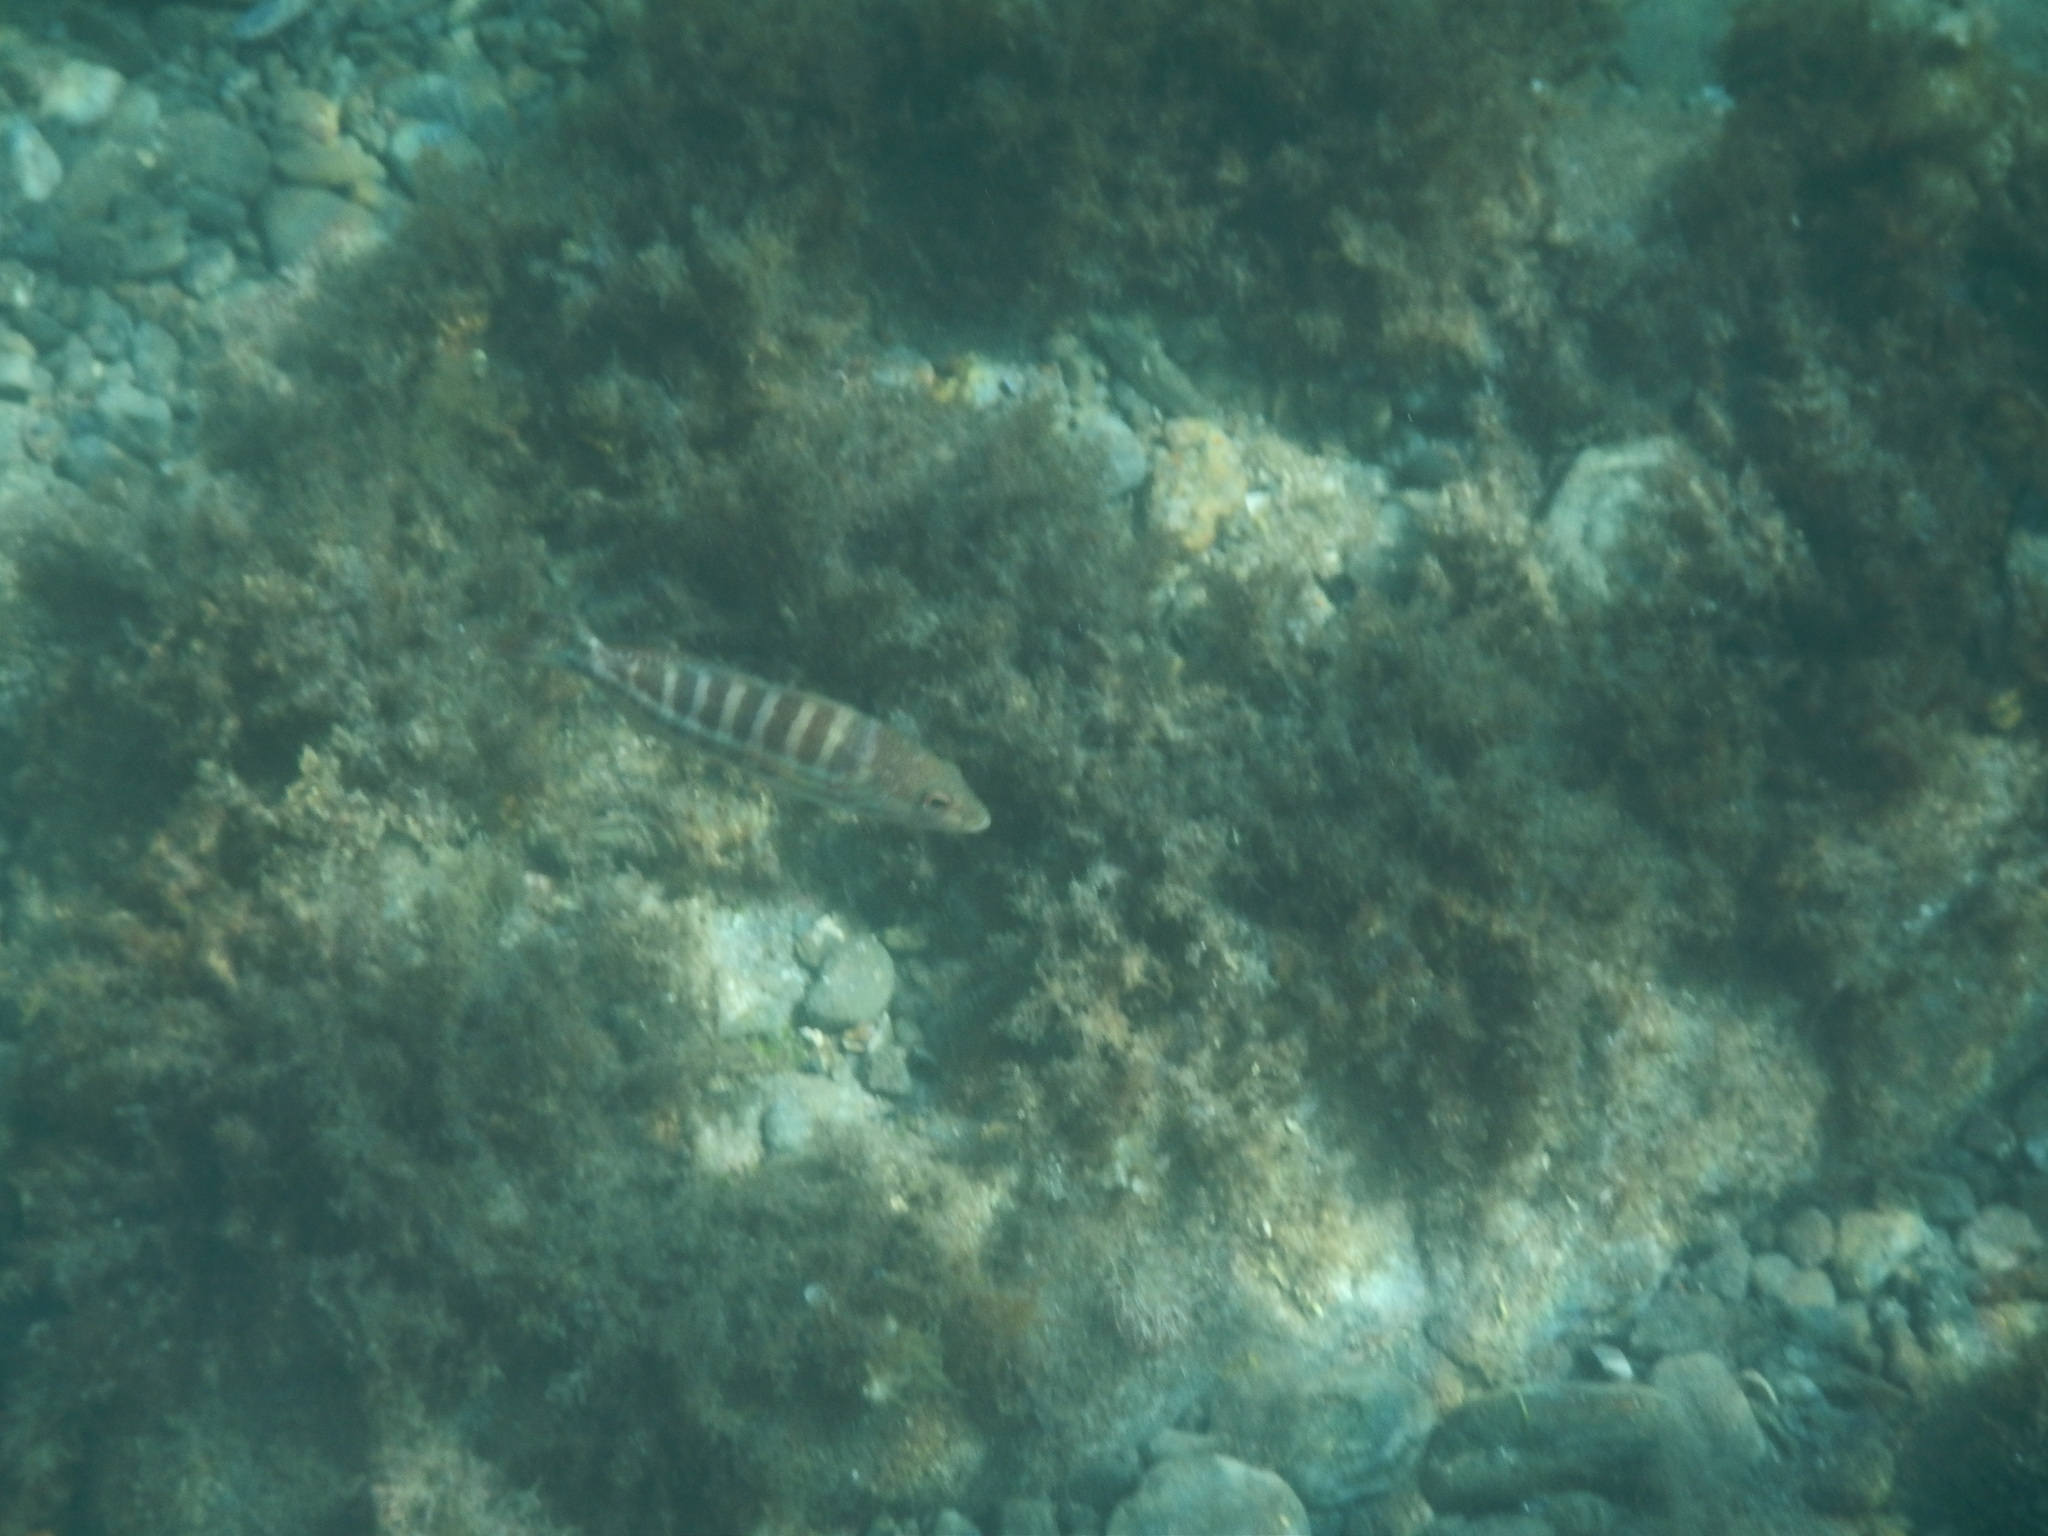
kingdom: Animalia
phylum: Chordata
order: Perciformes
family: Serranidae
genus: Serranus
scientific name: Serranus cabrilla
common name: Comber
